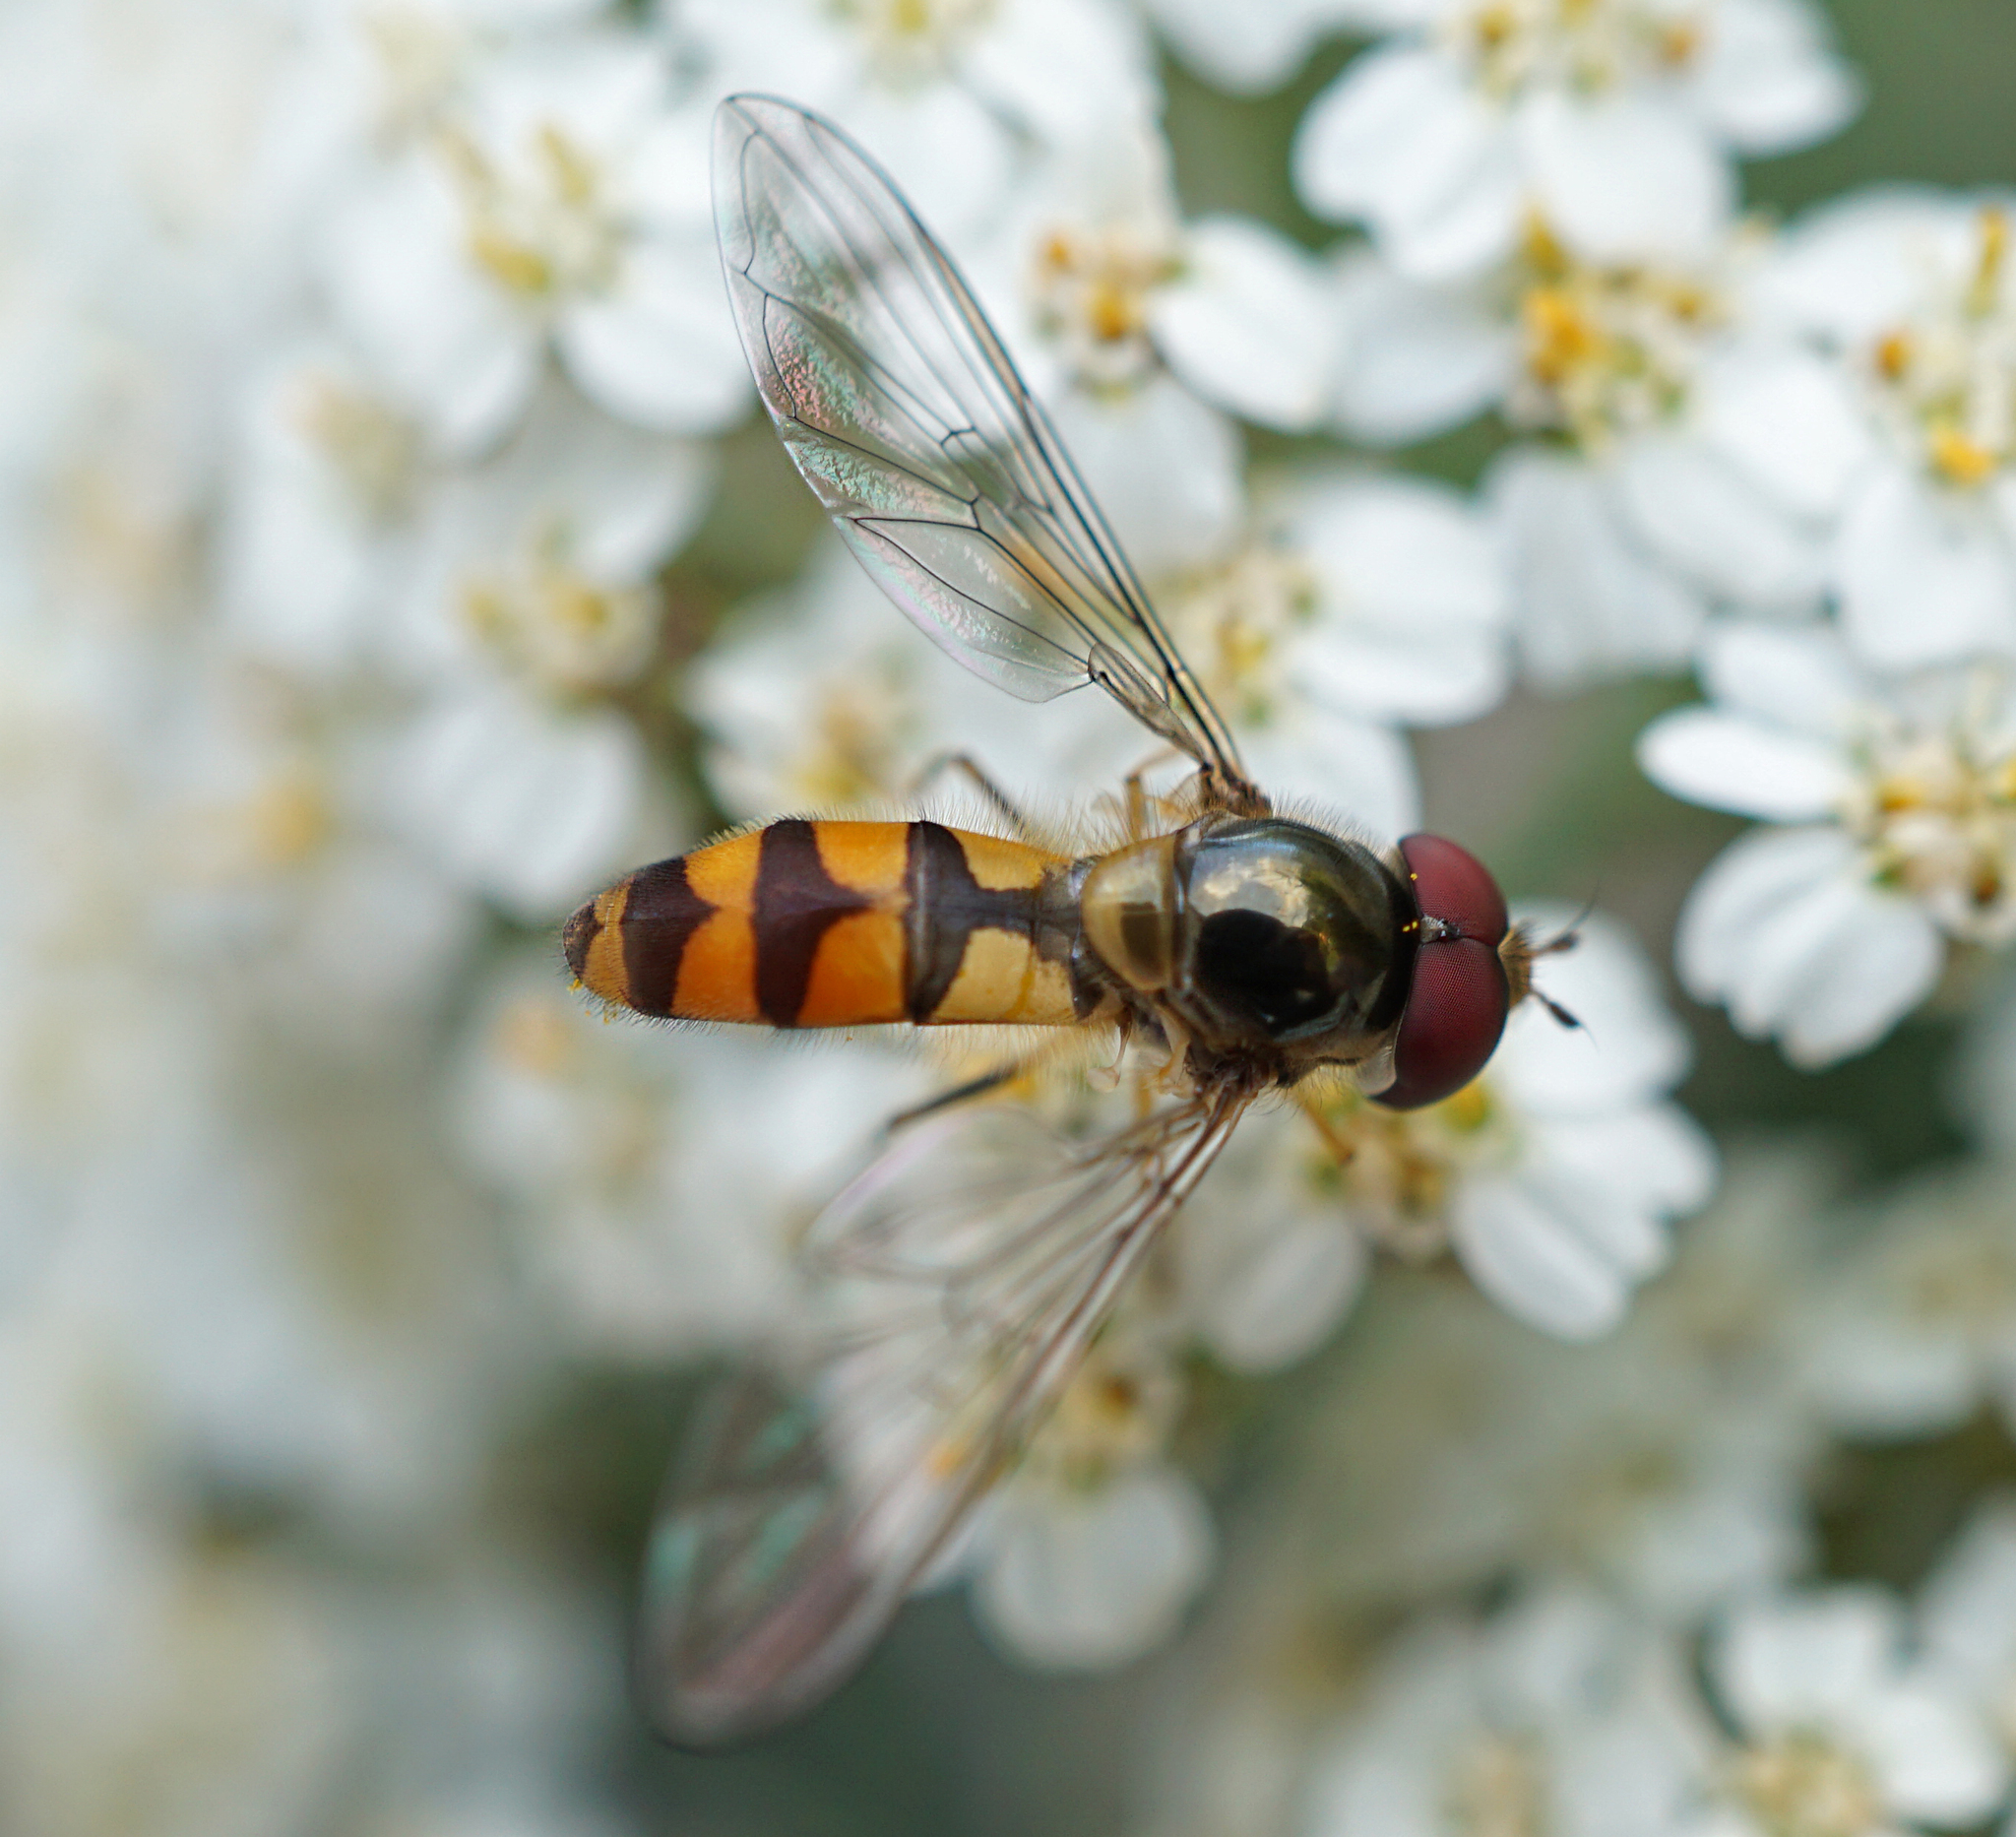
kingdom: Animalia
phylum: Arthropoda
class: Insecta
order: Diptera
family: Syrphidae
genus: Meliscaeva
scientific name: Meliscaeva auricollis
